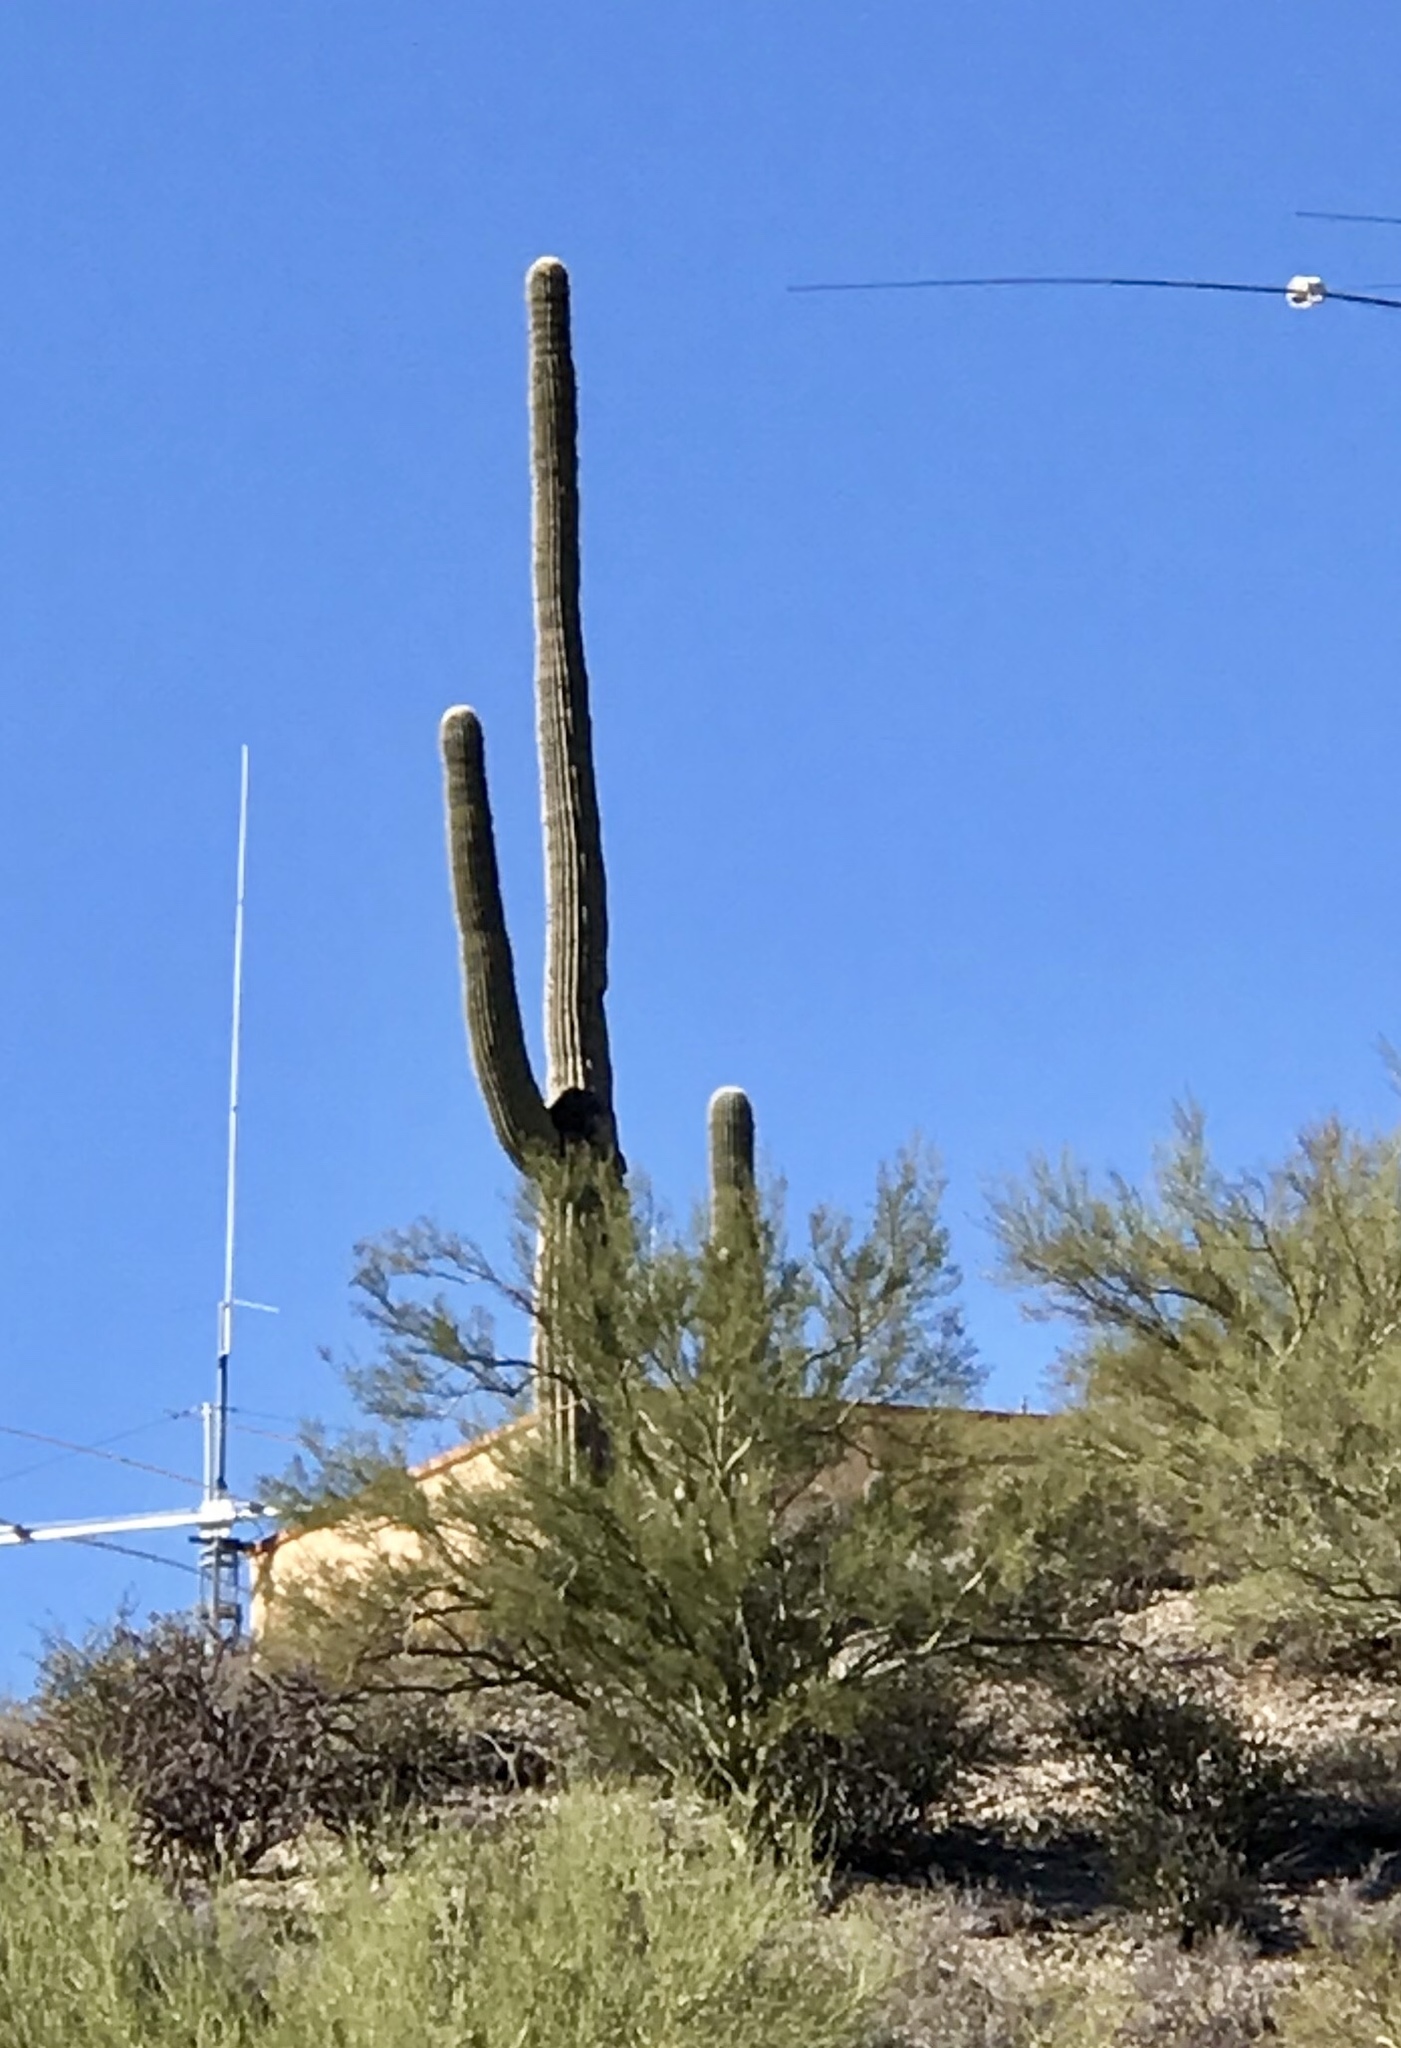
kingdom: Plantae
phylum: Tracheophyta
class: Magnoliopsida
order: Caryophyllales
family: Cactaceae
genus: Carnegiea
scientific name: Carnegiea gigantea
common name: Saguaro
